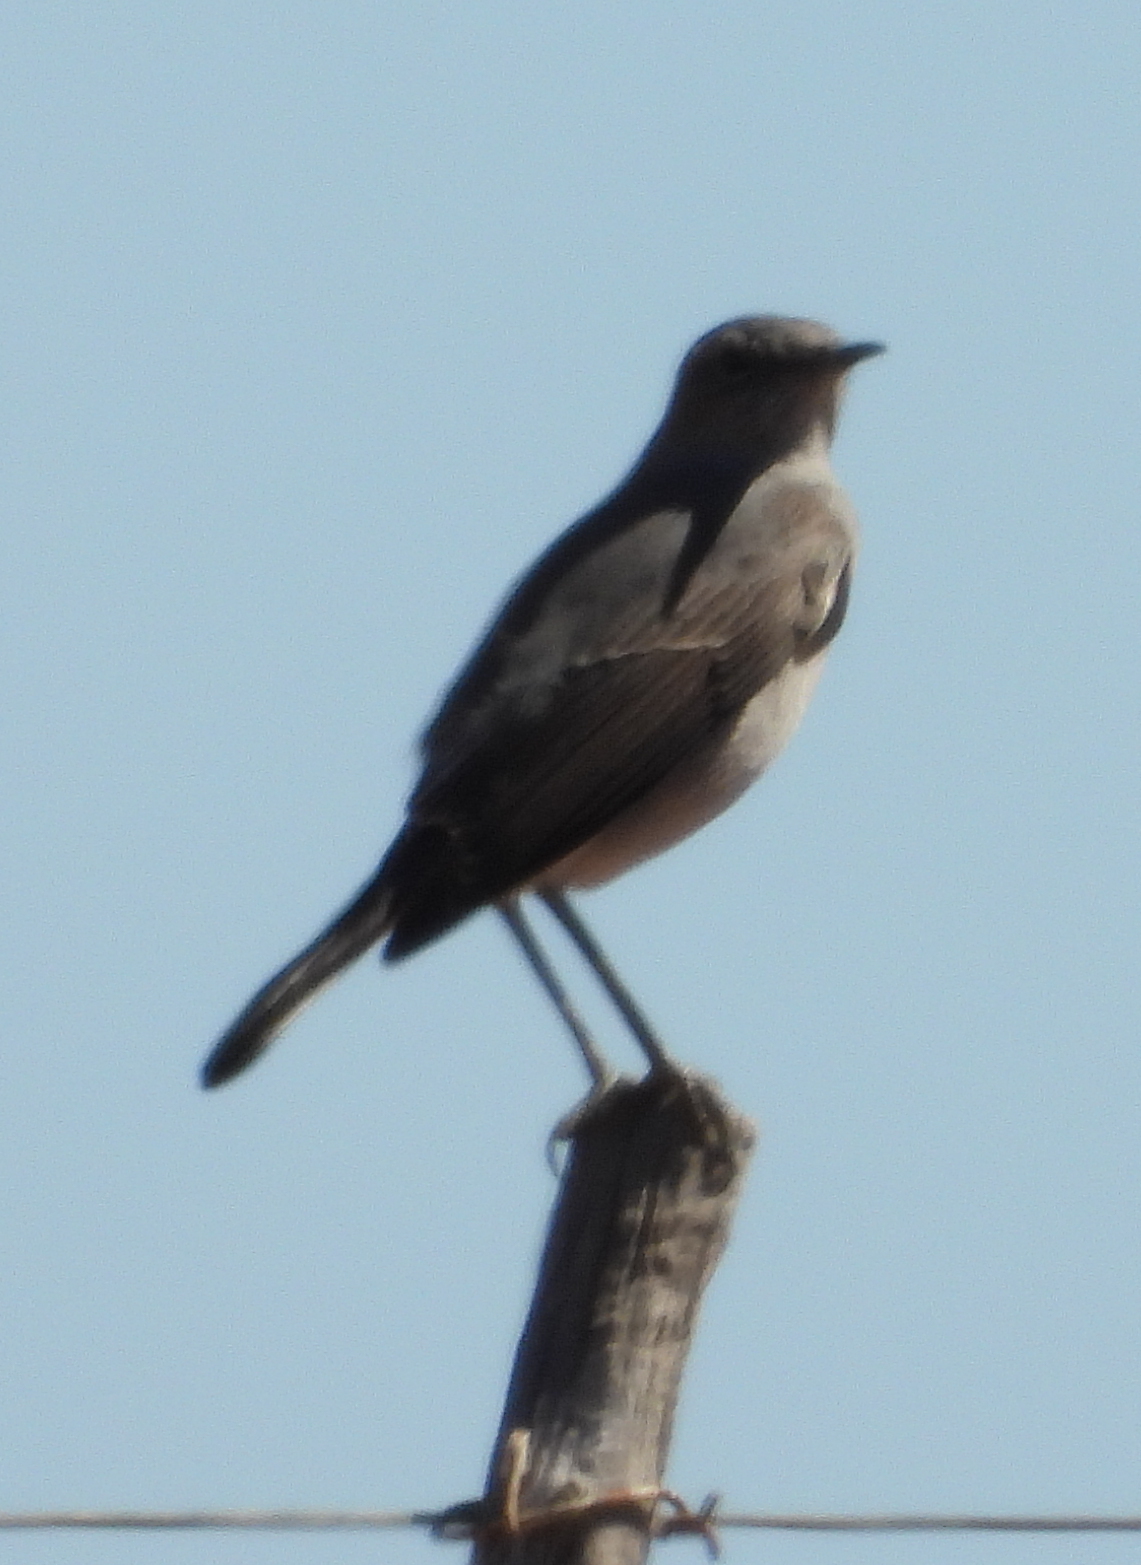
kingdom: Animalia
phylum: Chordata
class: Aves
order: Passeriformes
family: Muscicapidae
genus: Emarginata
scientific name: Emarginata schlegelii
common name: Karoo chat
